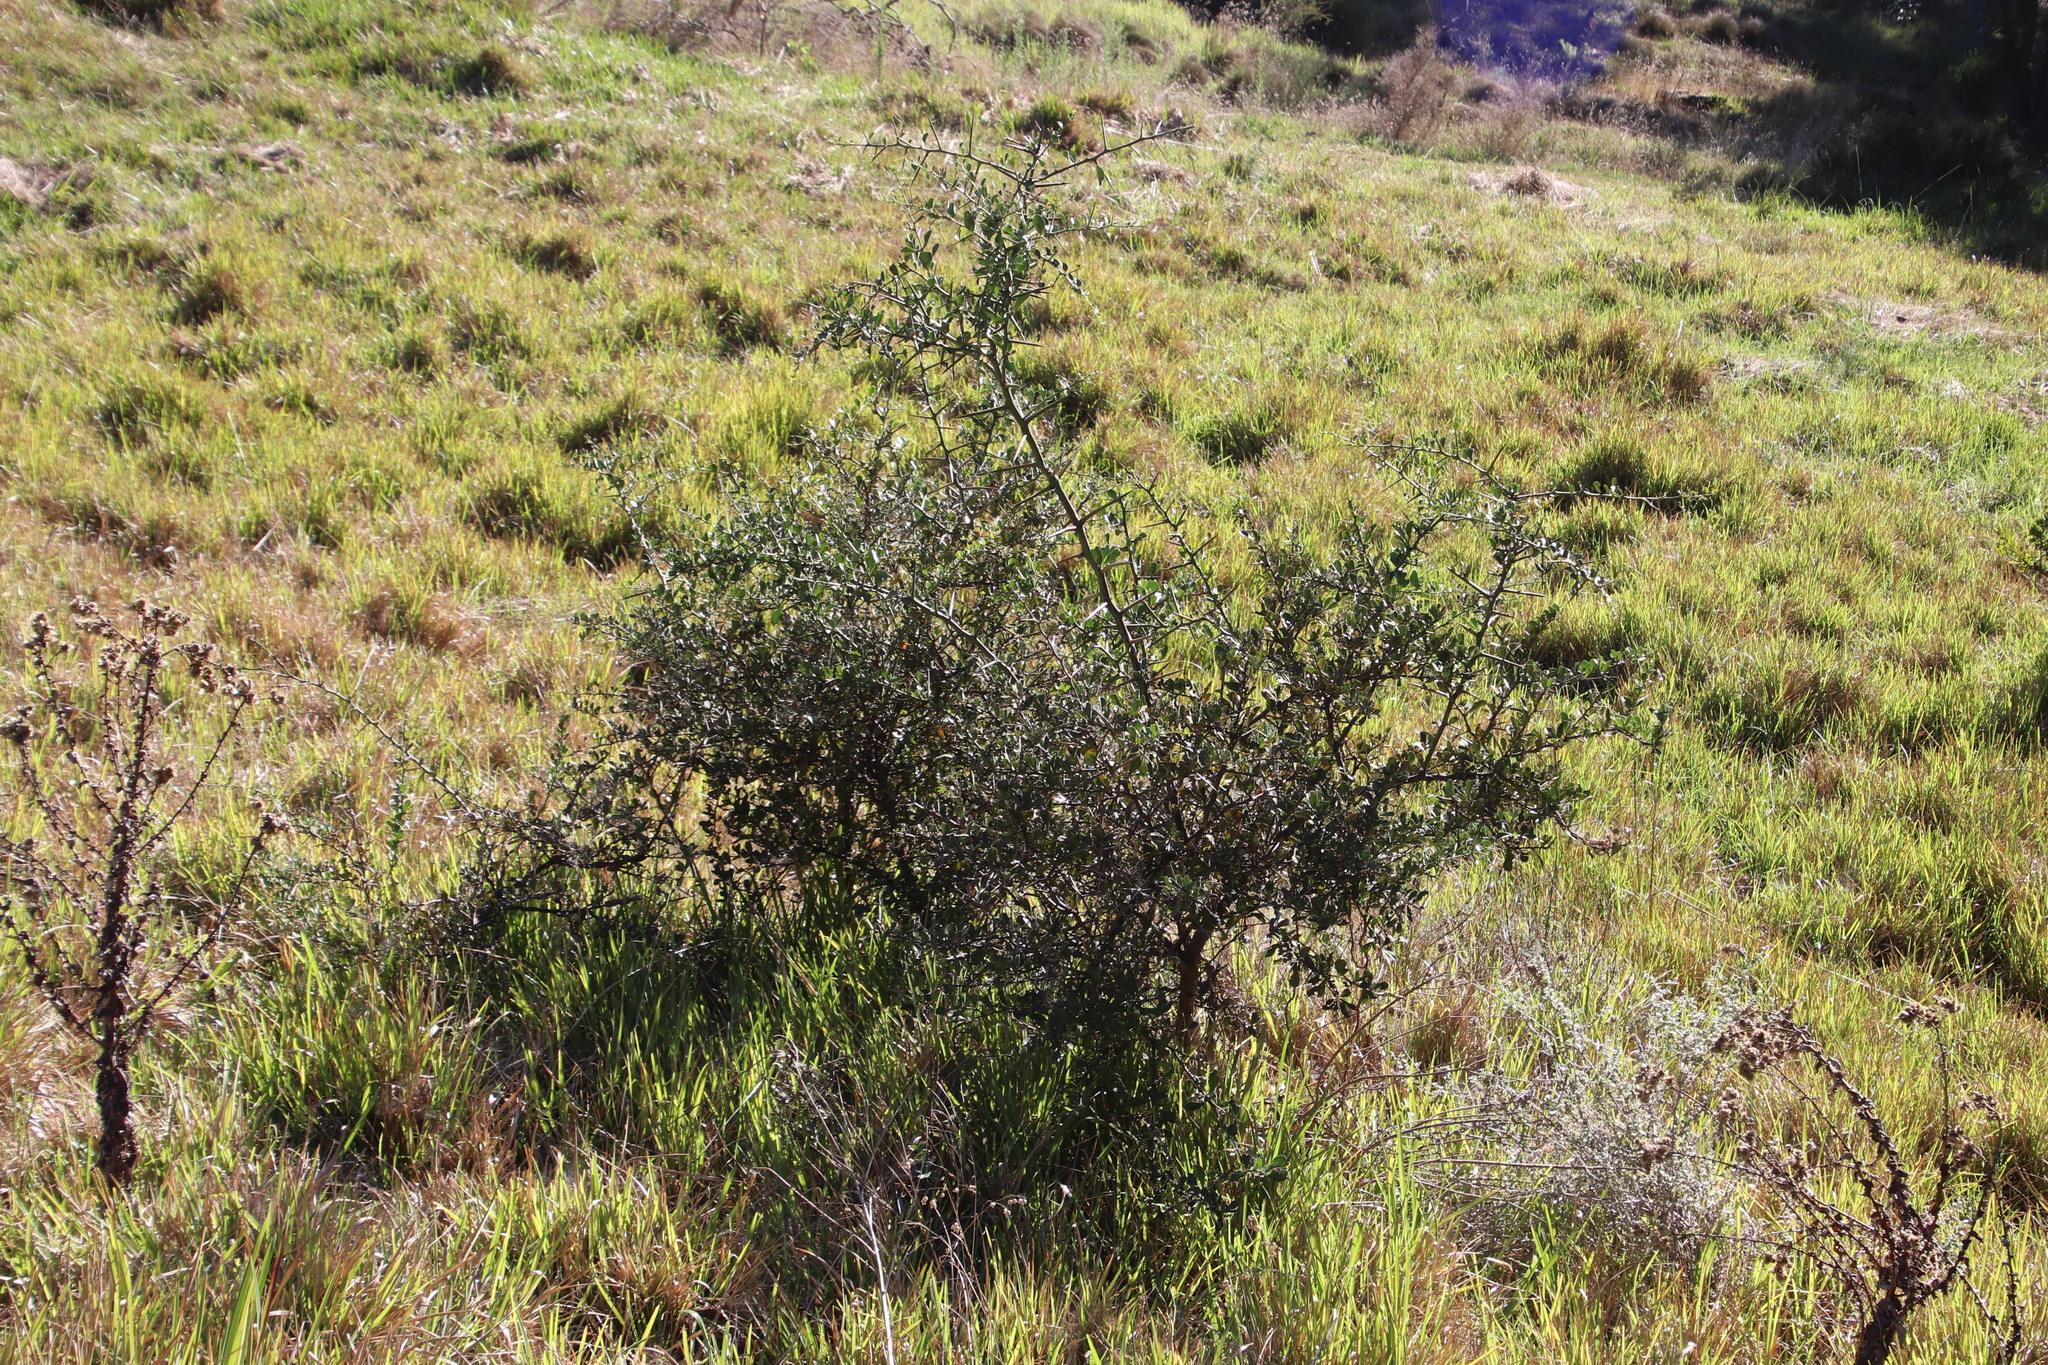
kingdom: Plantae
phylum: Tracheophyta
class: Magnoliopsida
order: Celastrales
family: Celastraceae
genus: Putterlickia
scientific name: Putterlickia pyracantha
